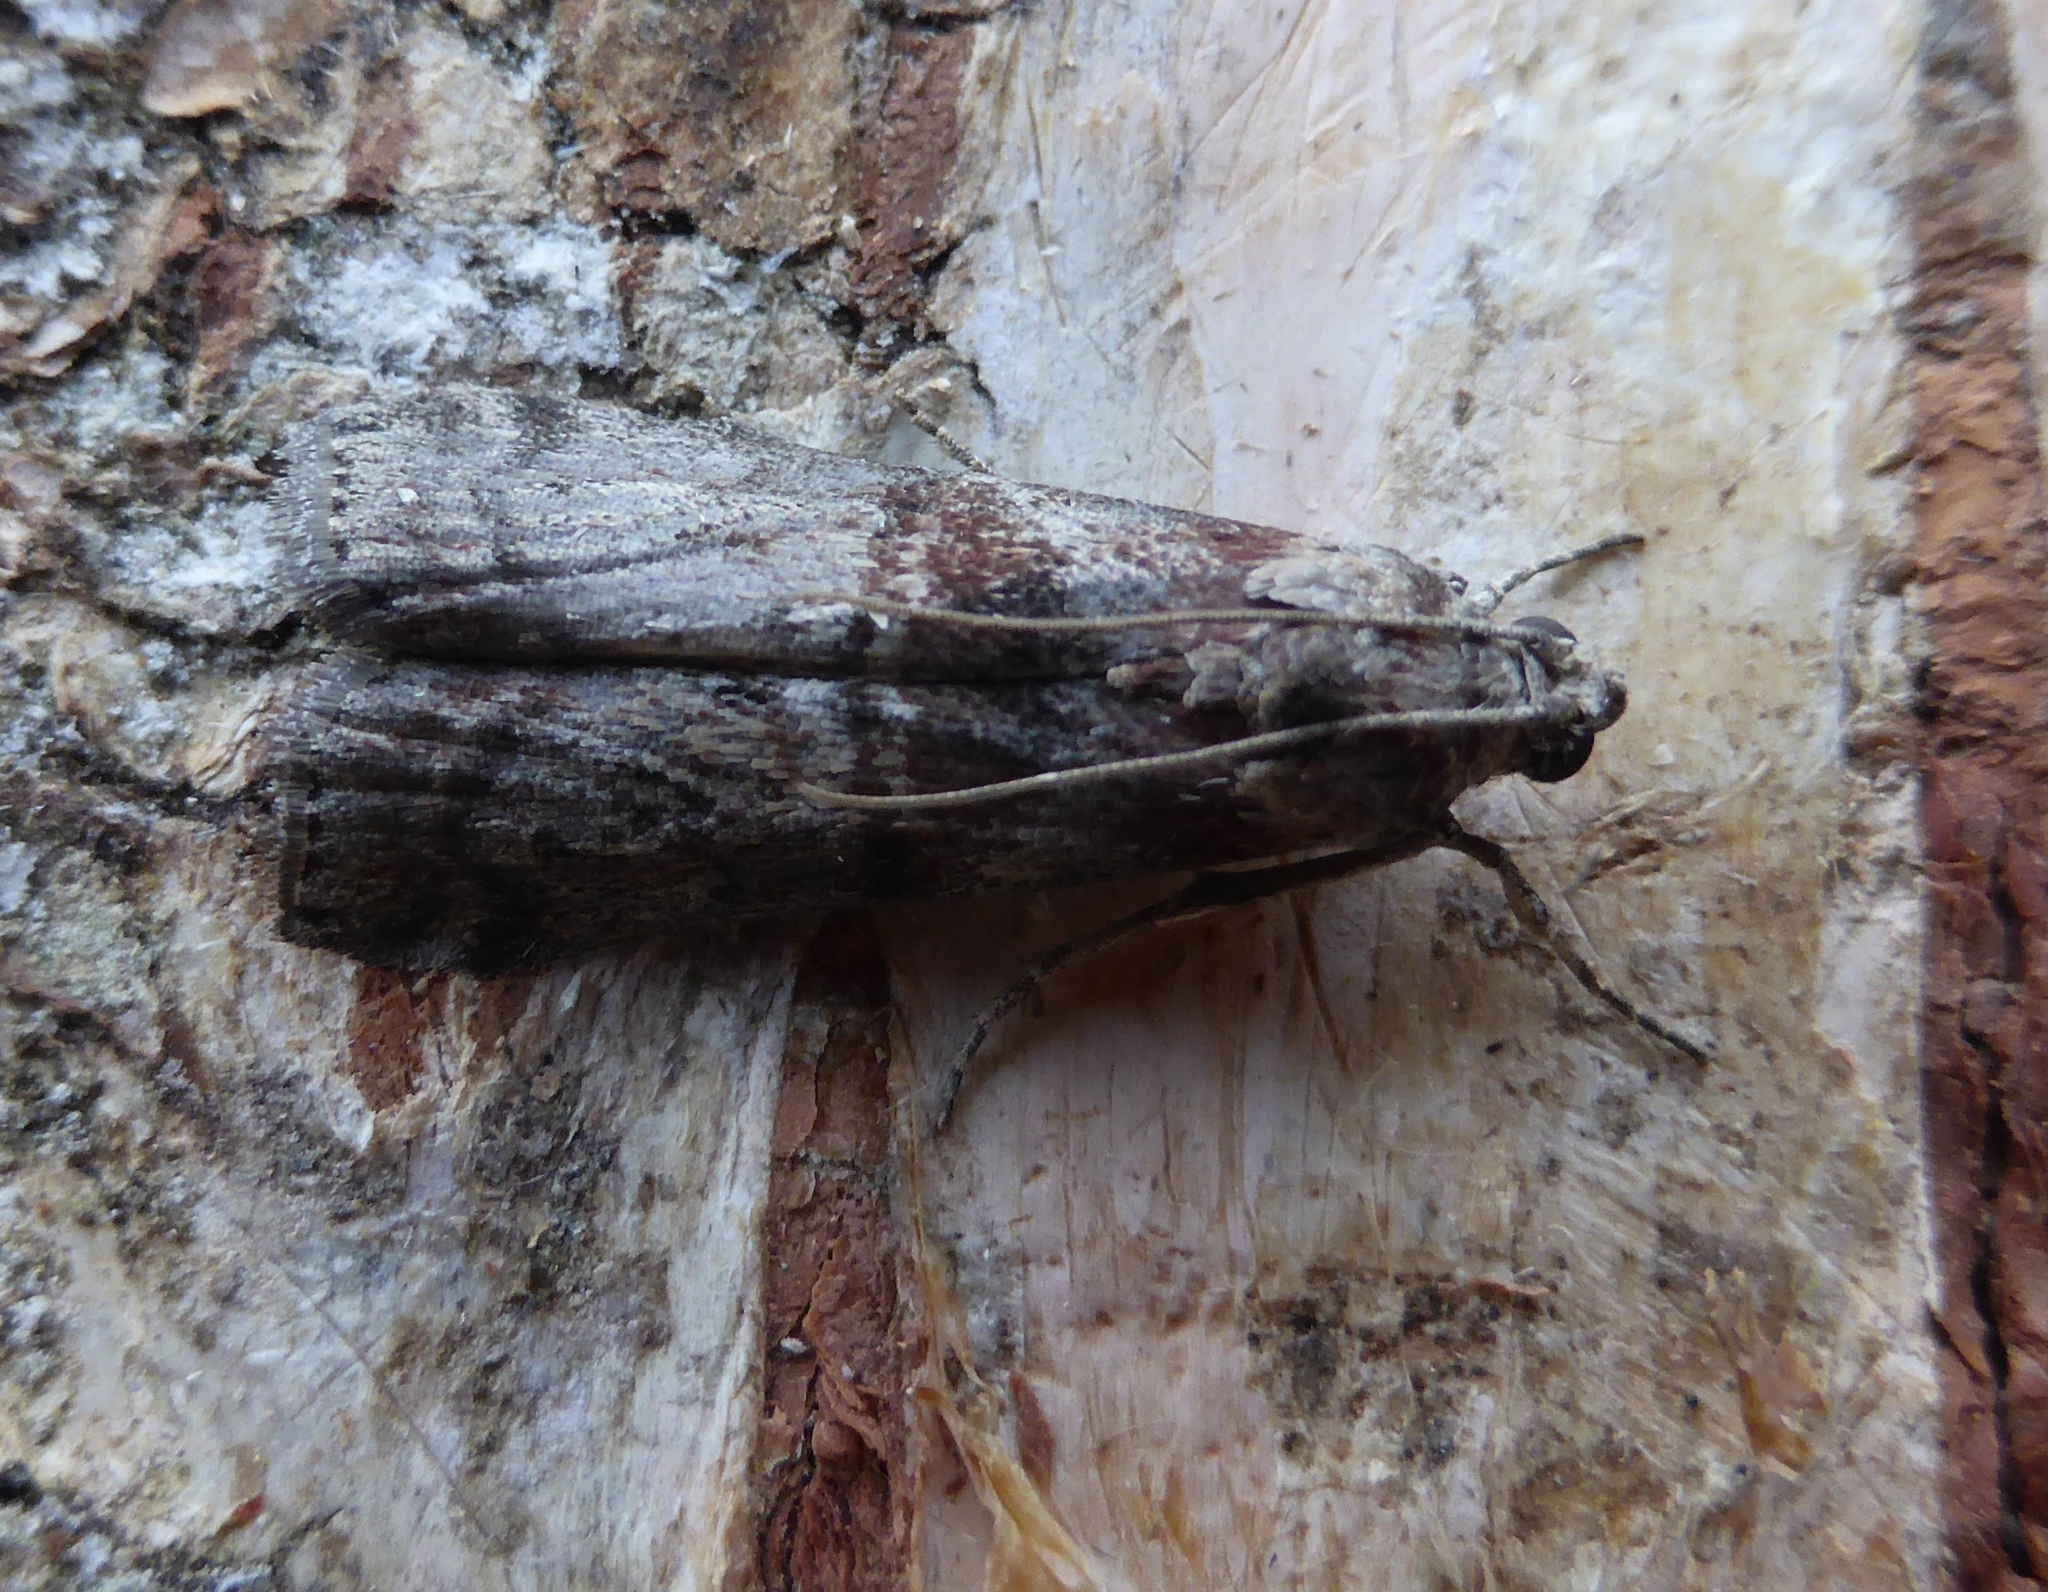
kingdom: Animalia
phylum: Arthropoda
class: Insecta
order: Lepidoptera
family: Pyralidae
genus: Phycita
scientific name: Phycita roborella
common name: Dotted oak knot-horn
